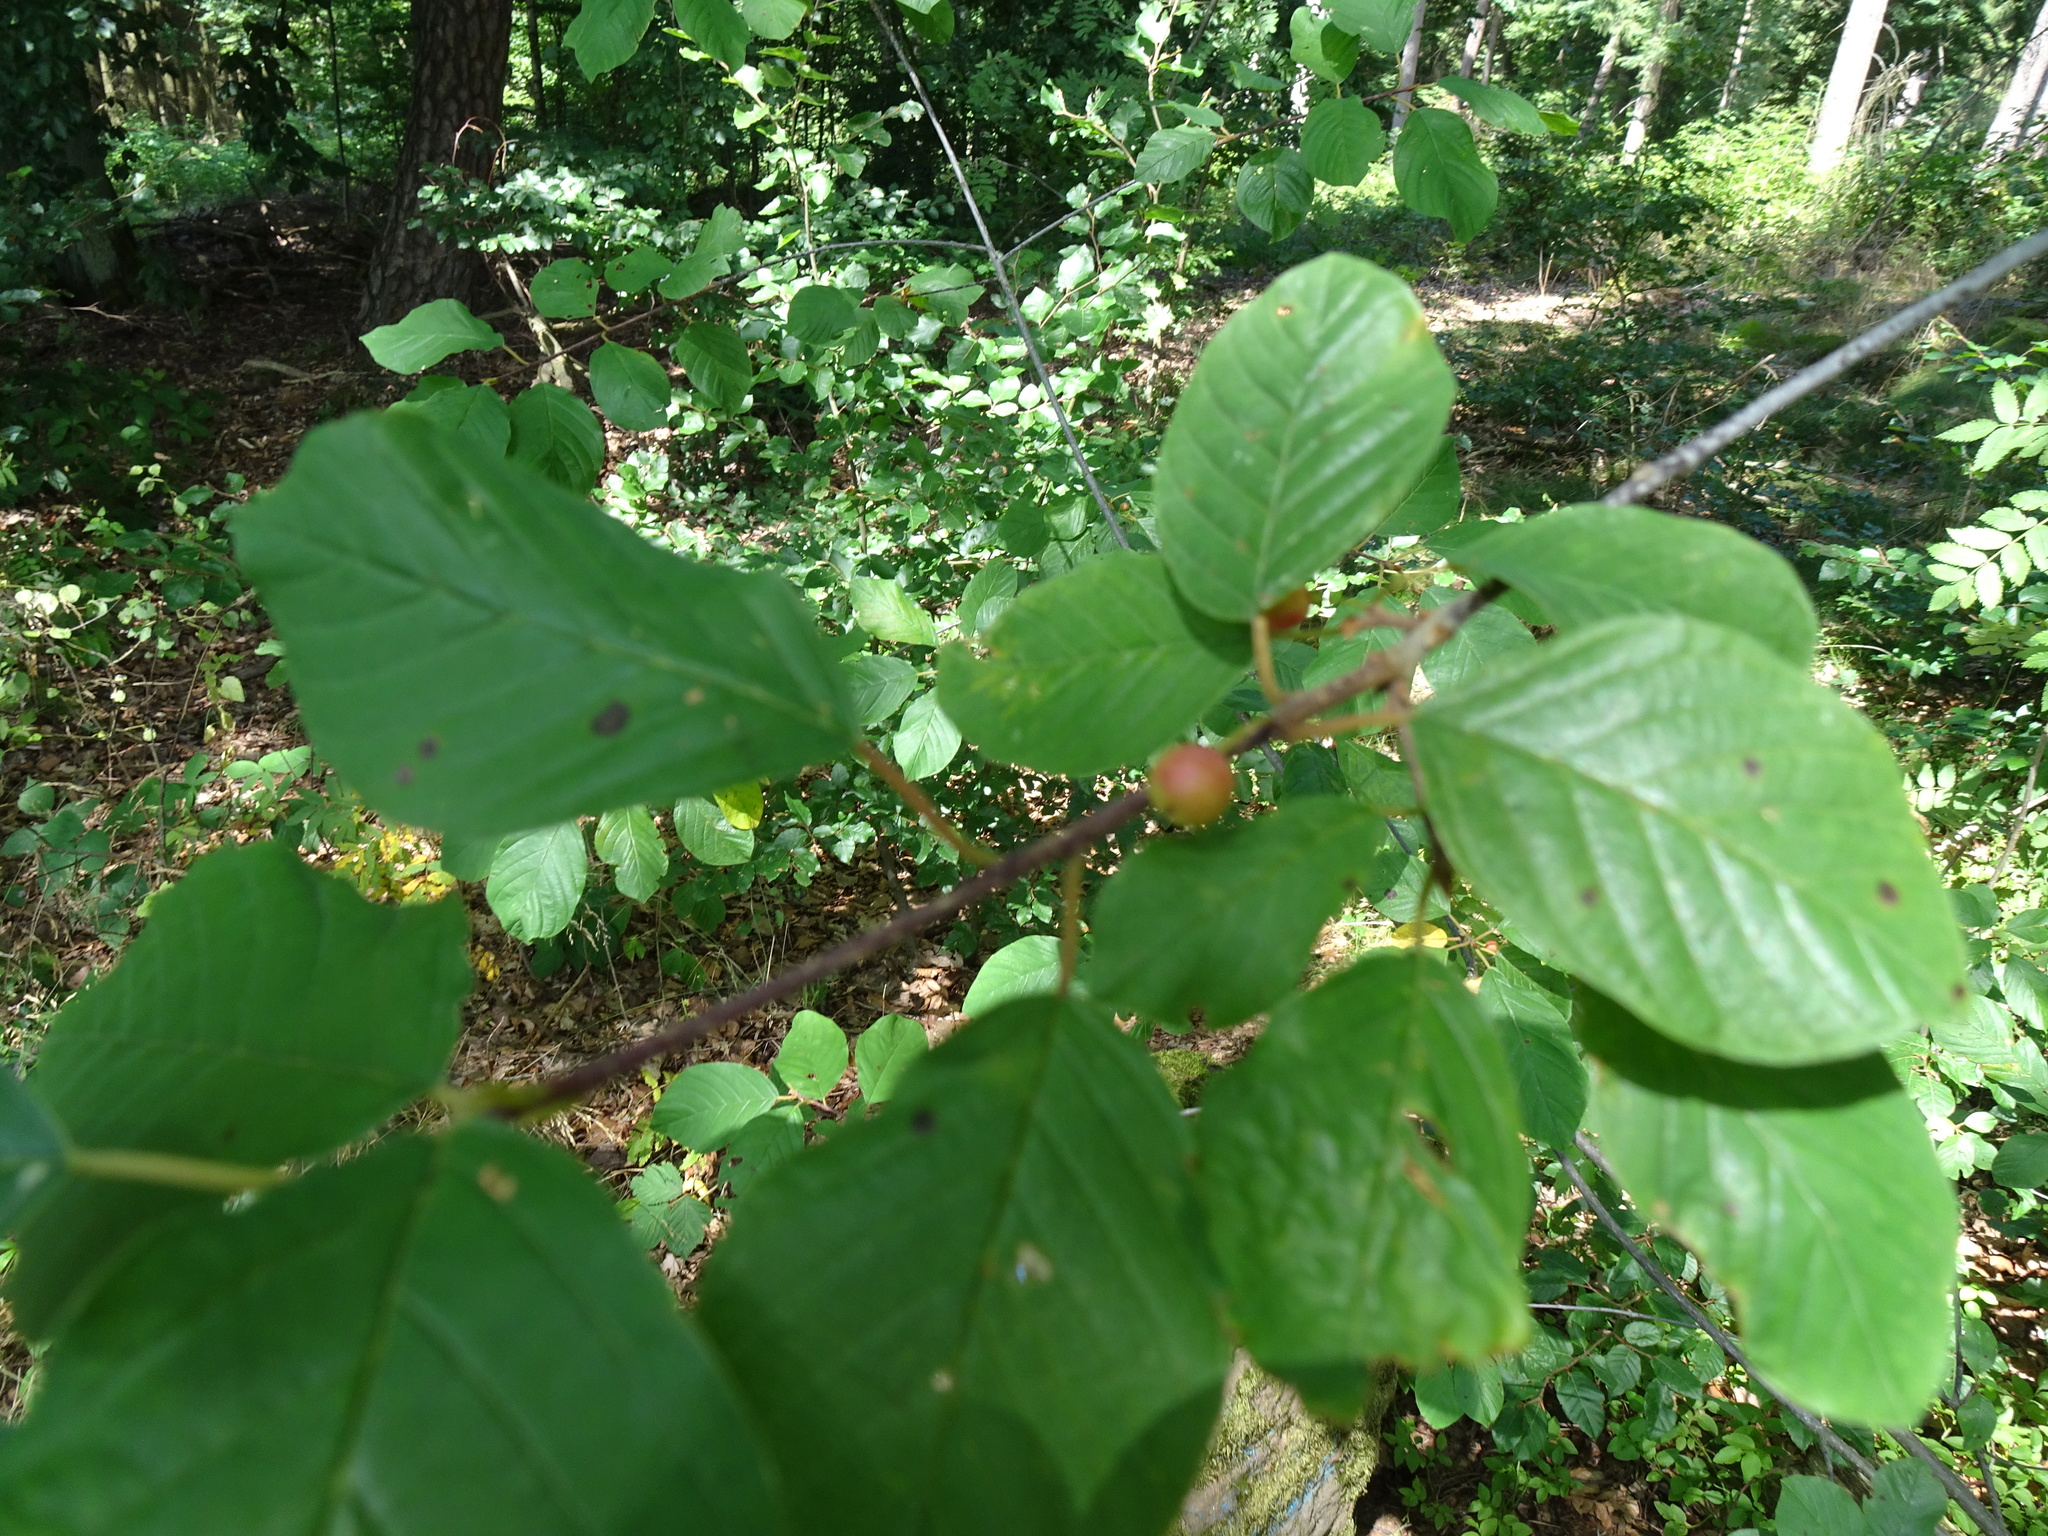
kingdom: Plantae
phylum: Tracheophyta
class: Magnoliopsida
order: Rosales
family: Rhamnaceae
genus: Frangula
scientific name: Frangula alnus
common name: Alder buckthorn
